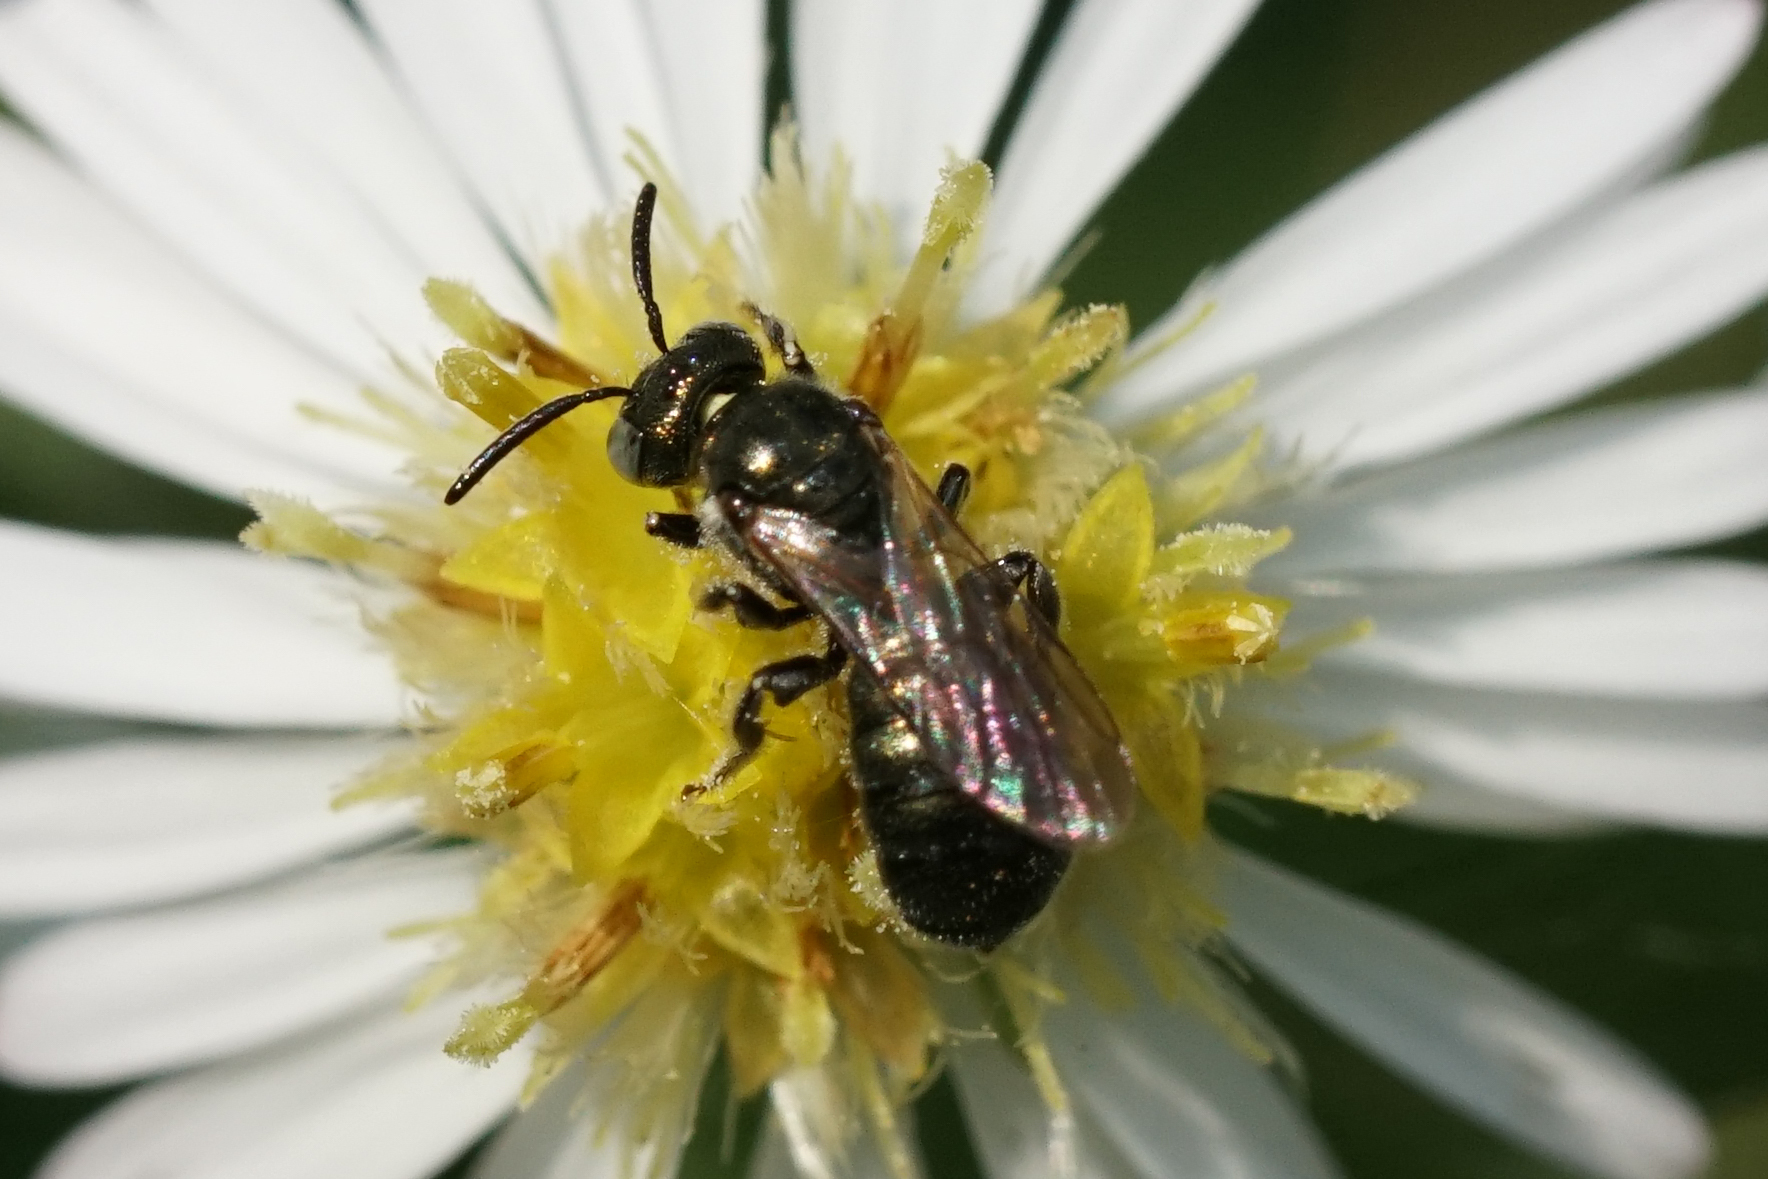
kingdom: Animalia
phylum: Arthropoda
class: Insecta
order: Hymenoptera
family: Apidae
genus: Zadontomerus
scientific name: Zadontomerus
